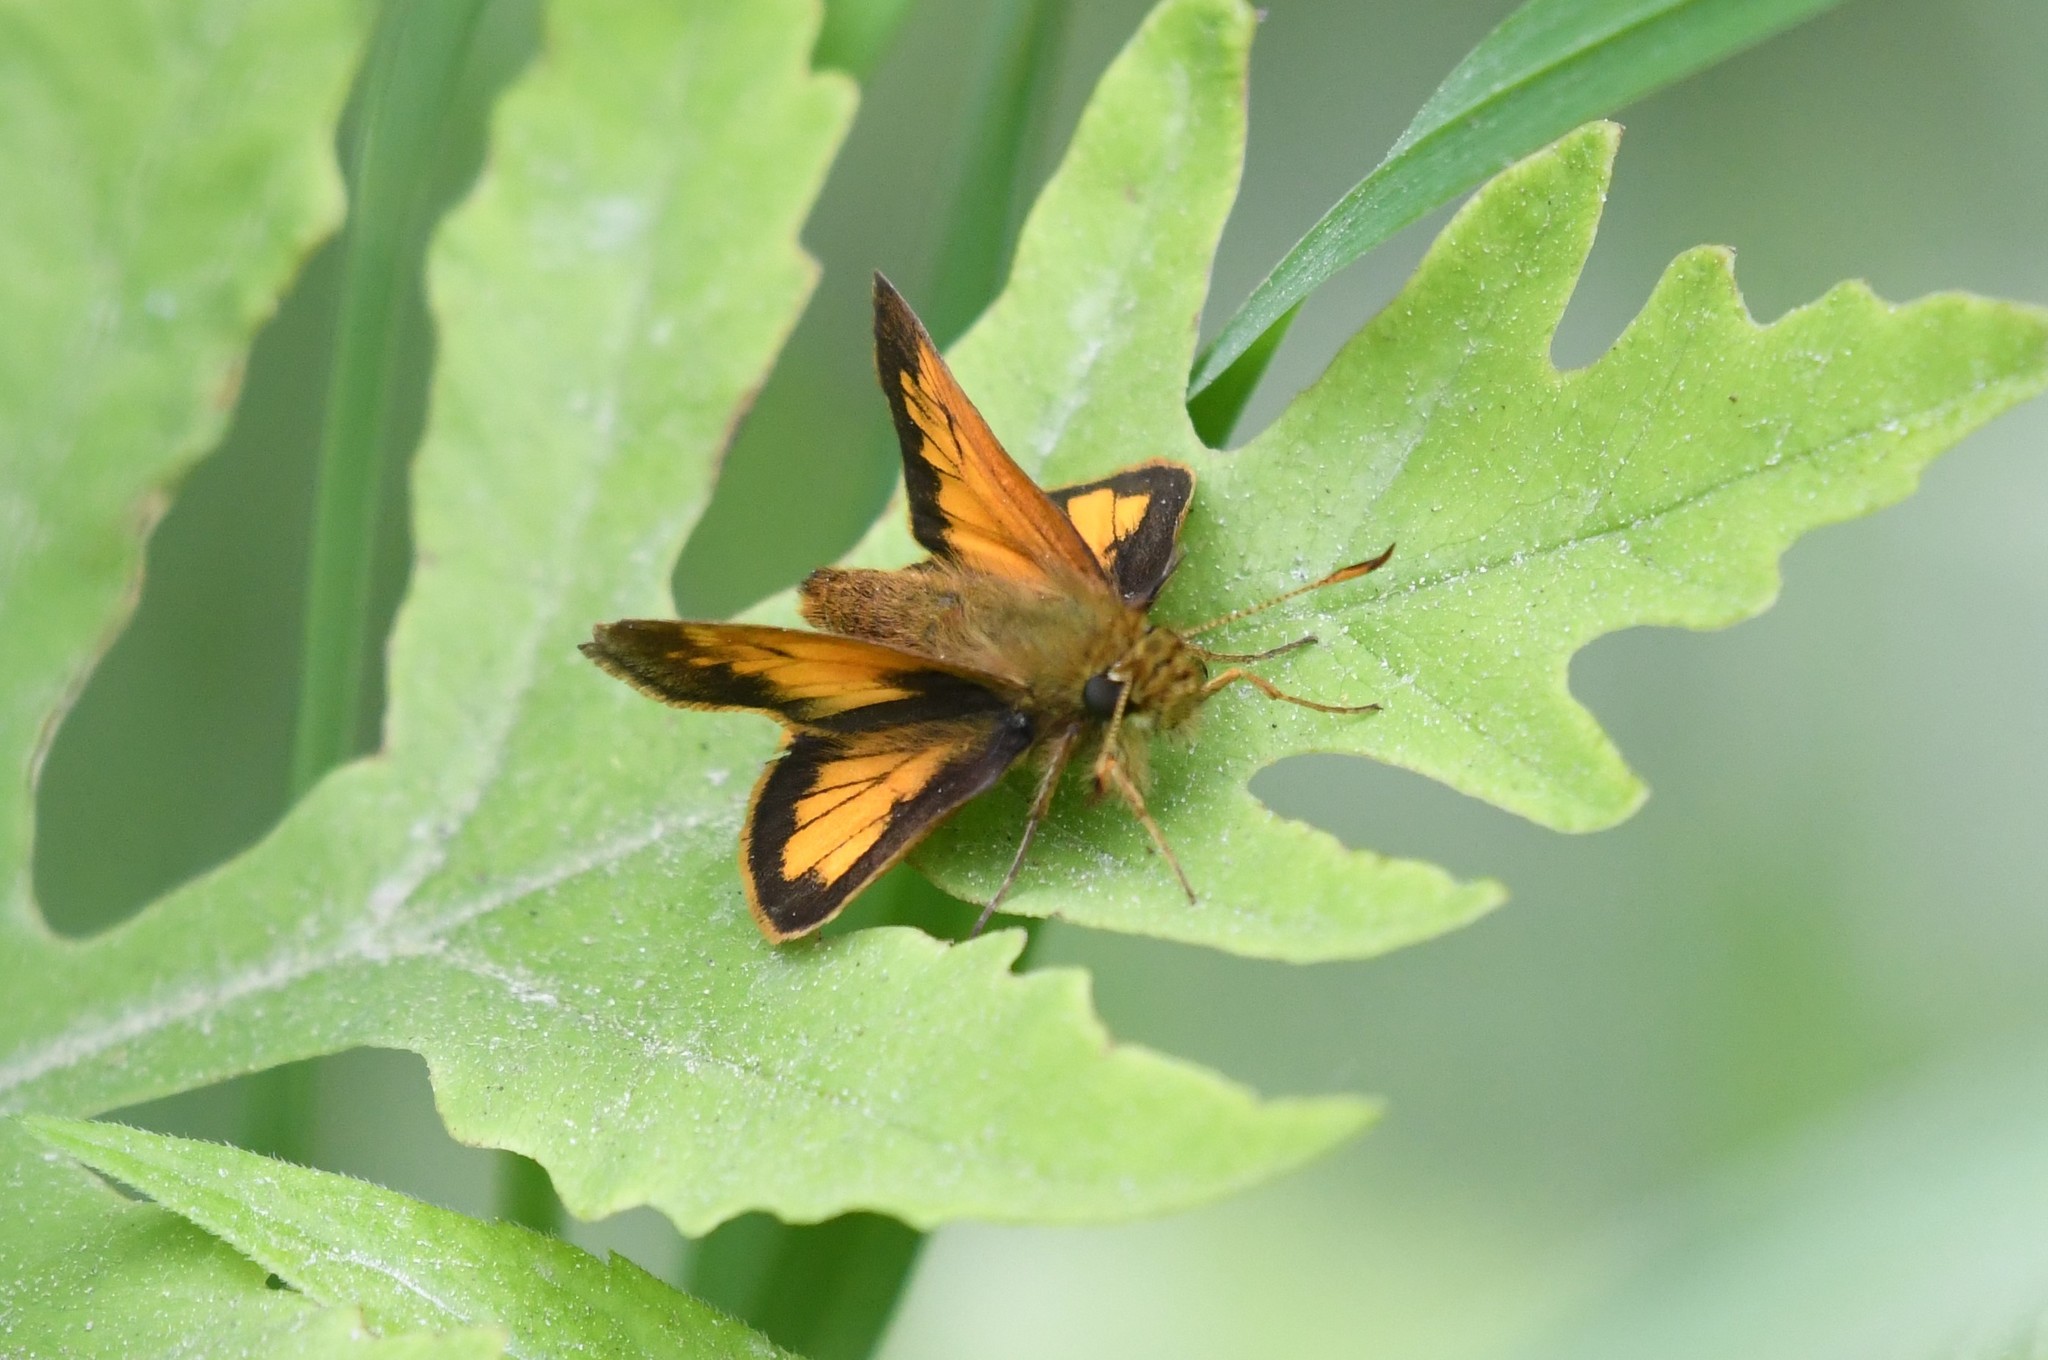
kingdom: Animalia
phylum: Arthropoda
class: Insecta
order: Lepidoptera
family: Hesperiidae
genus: Lon
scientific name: Lon hobomok
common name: Hobomok skipper
